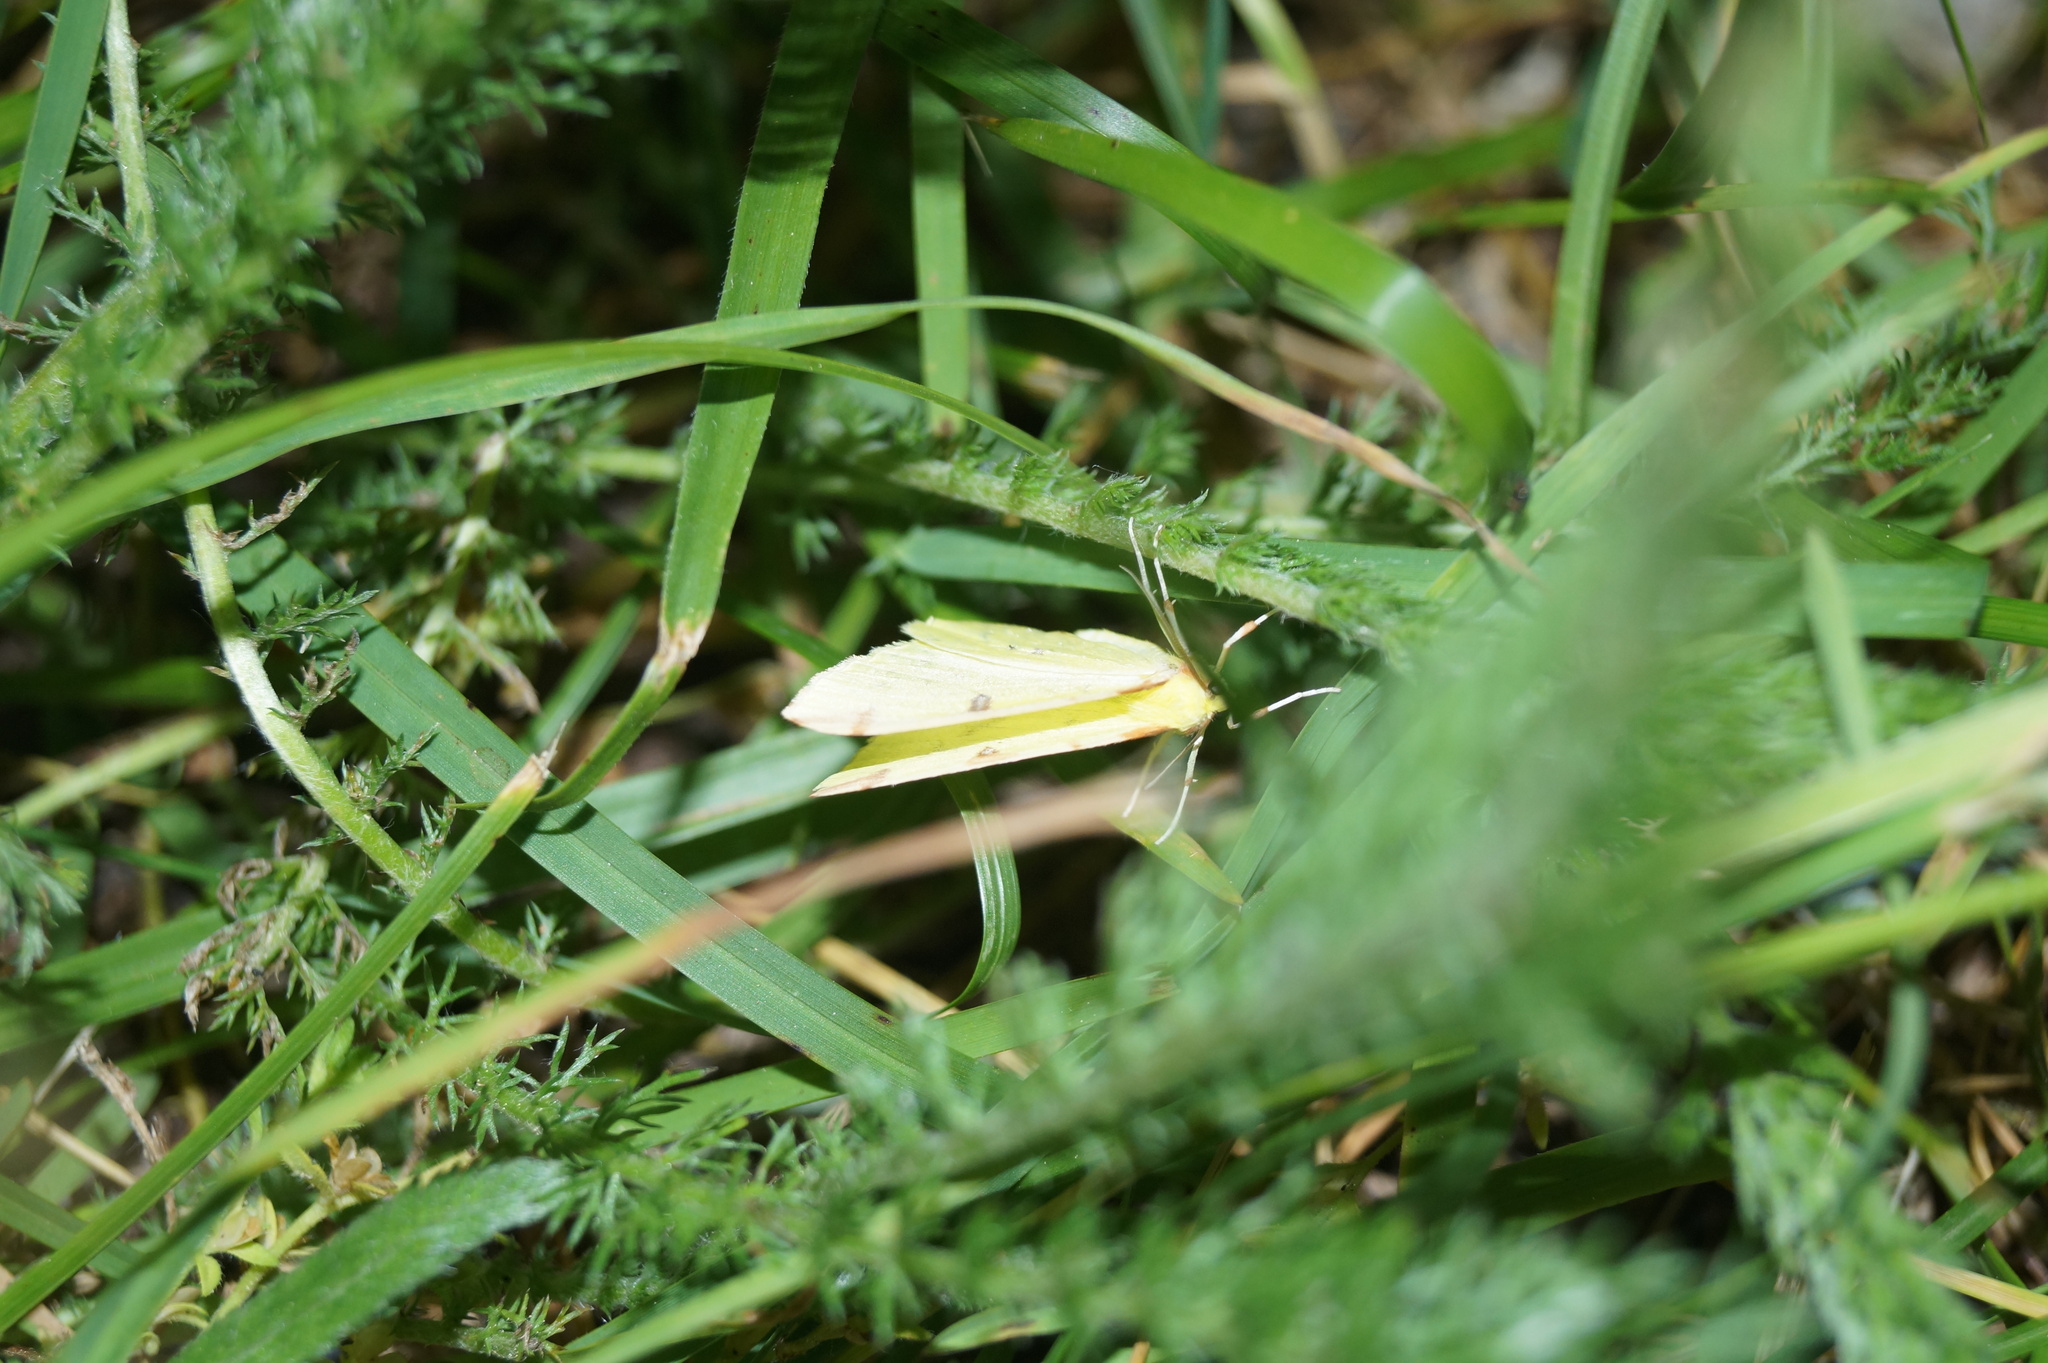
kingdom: Animalia
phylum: Arthropoda
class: Insecta
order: Lepidoptera
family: Geometridae
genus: Opisthograptis
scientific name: Opisthograptis luteolata
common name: Brimstone moth
